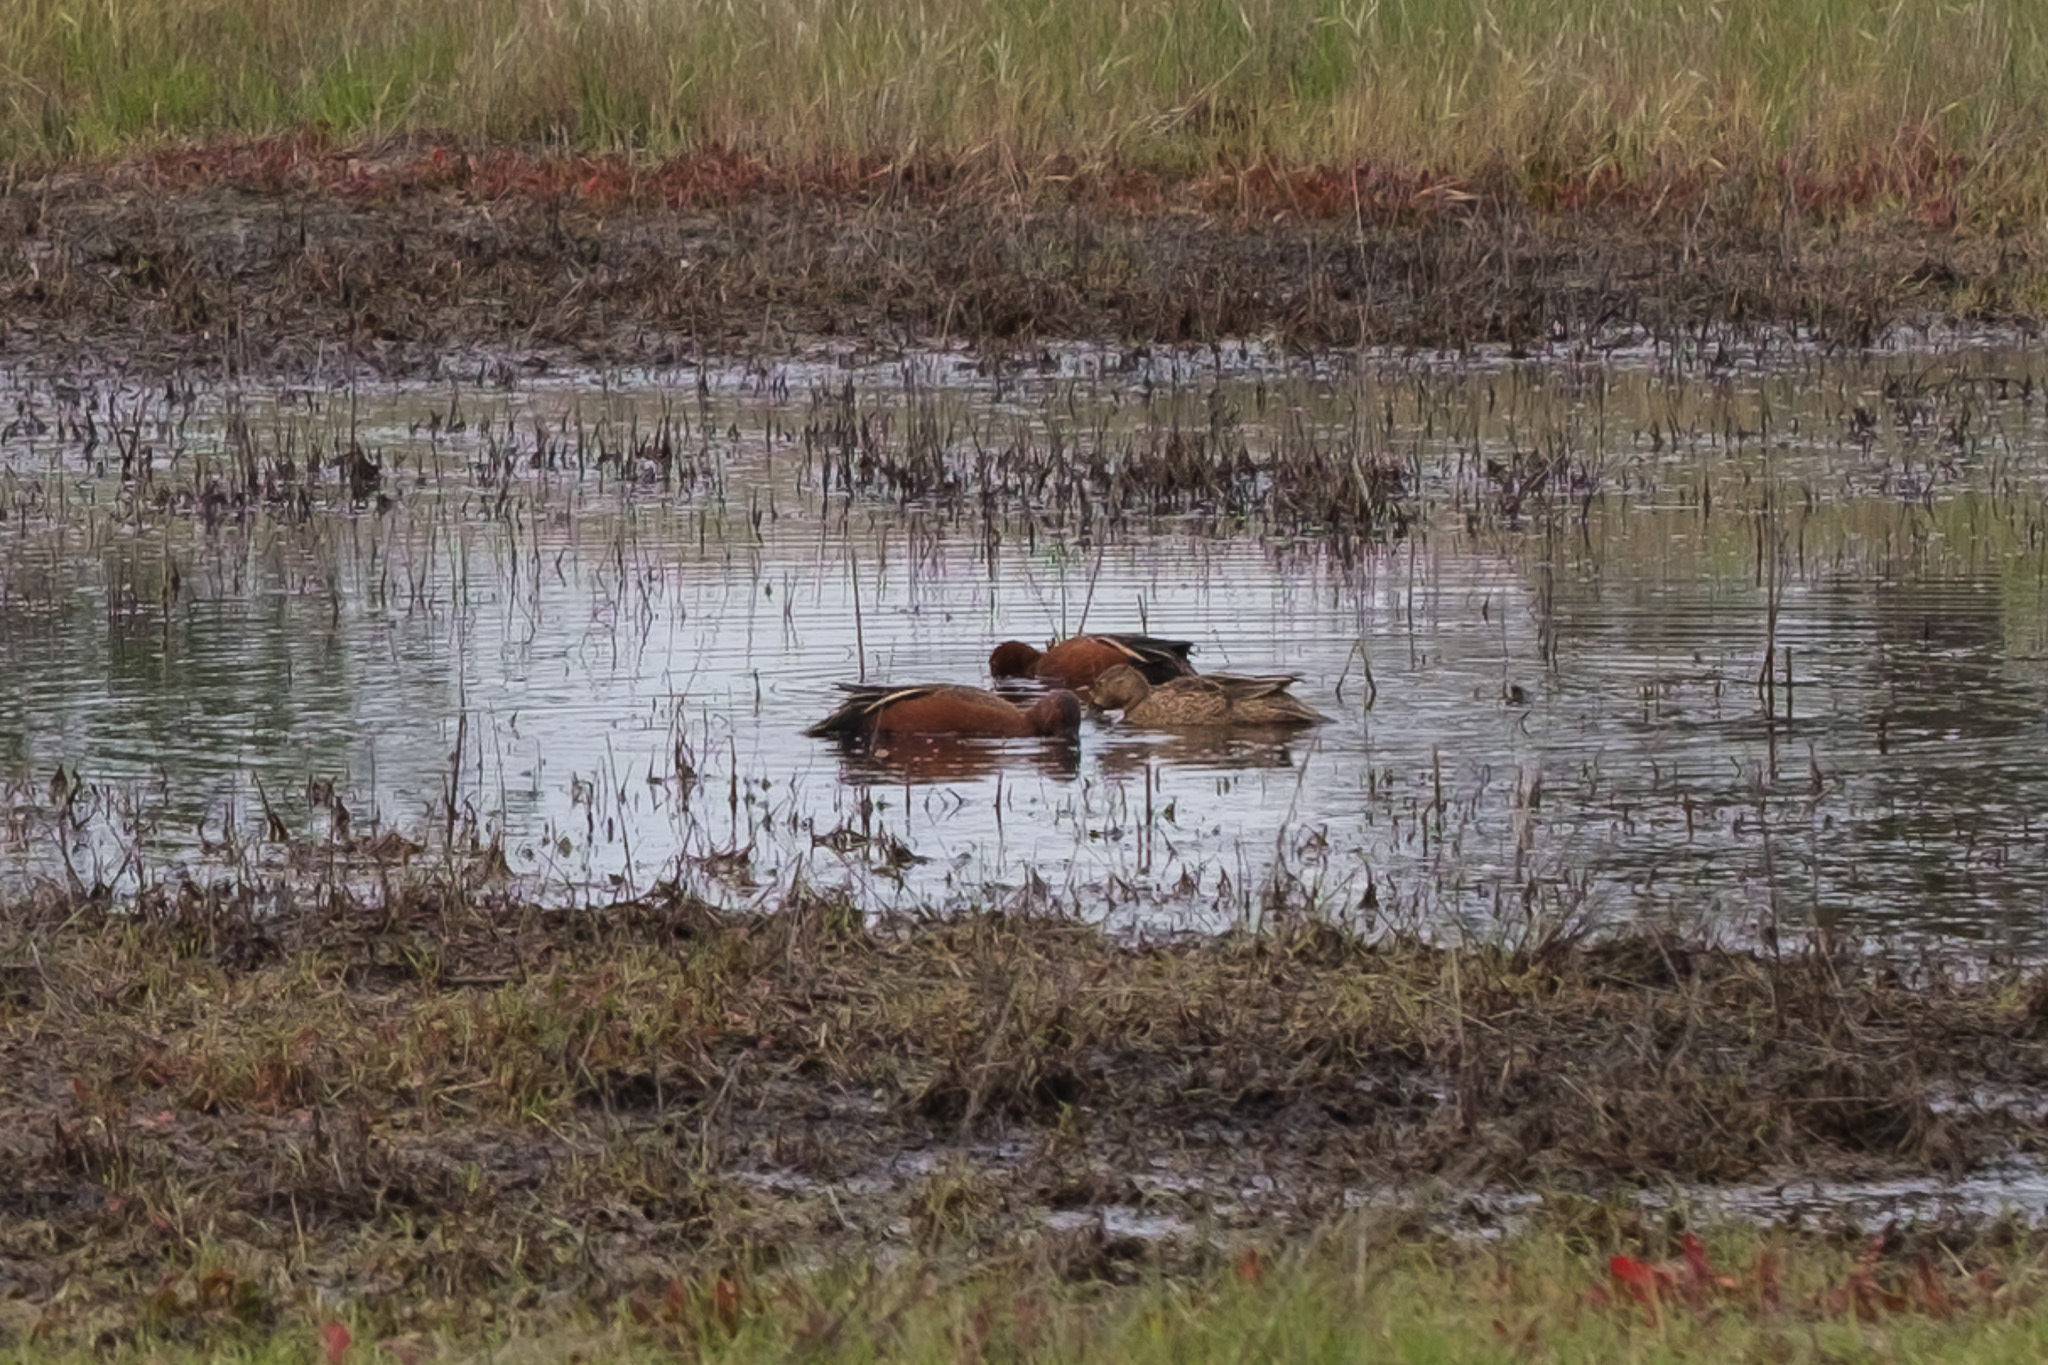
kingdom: Animalia
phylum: Chordata
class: Aves
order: Anseriformes
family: Anatidae
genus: Spatula
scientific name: Spatula cyanoptera
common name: Cinnamon teal
